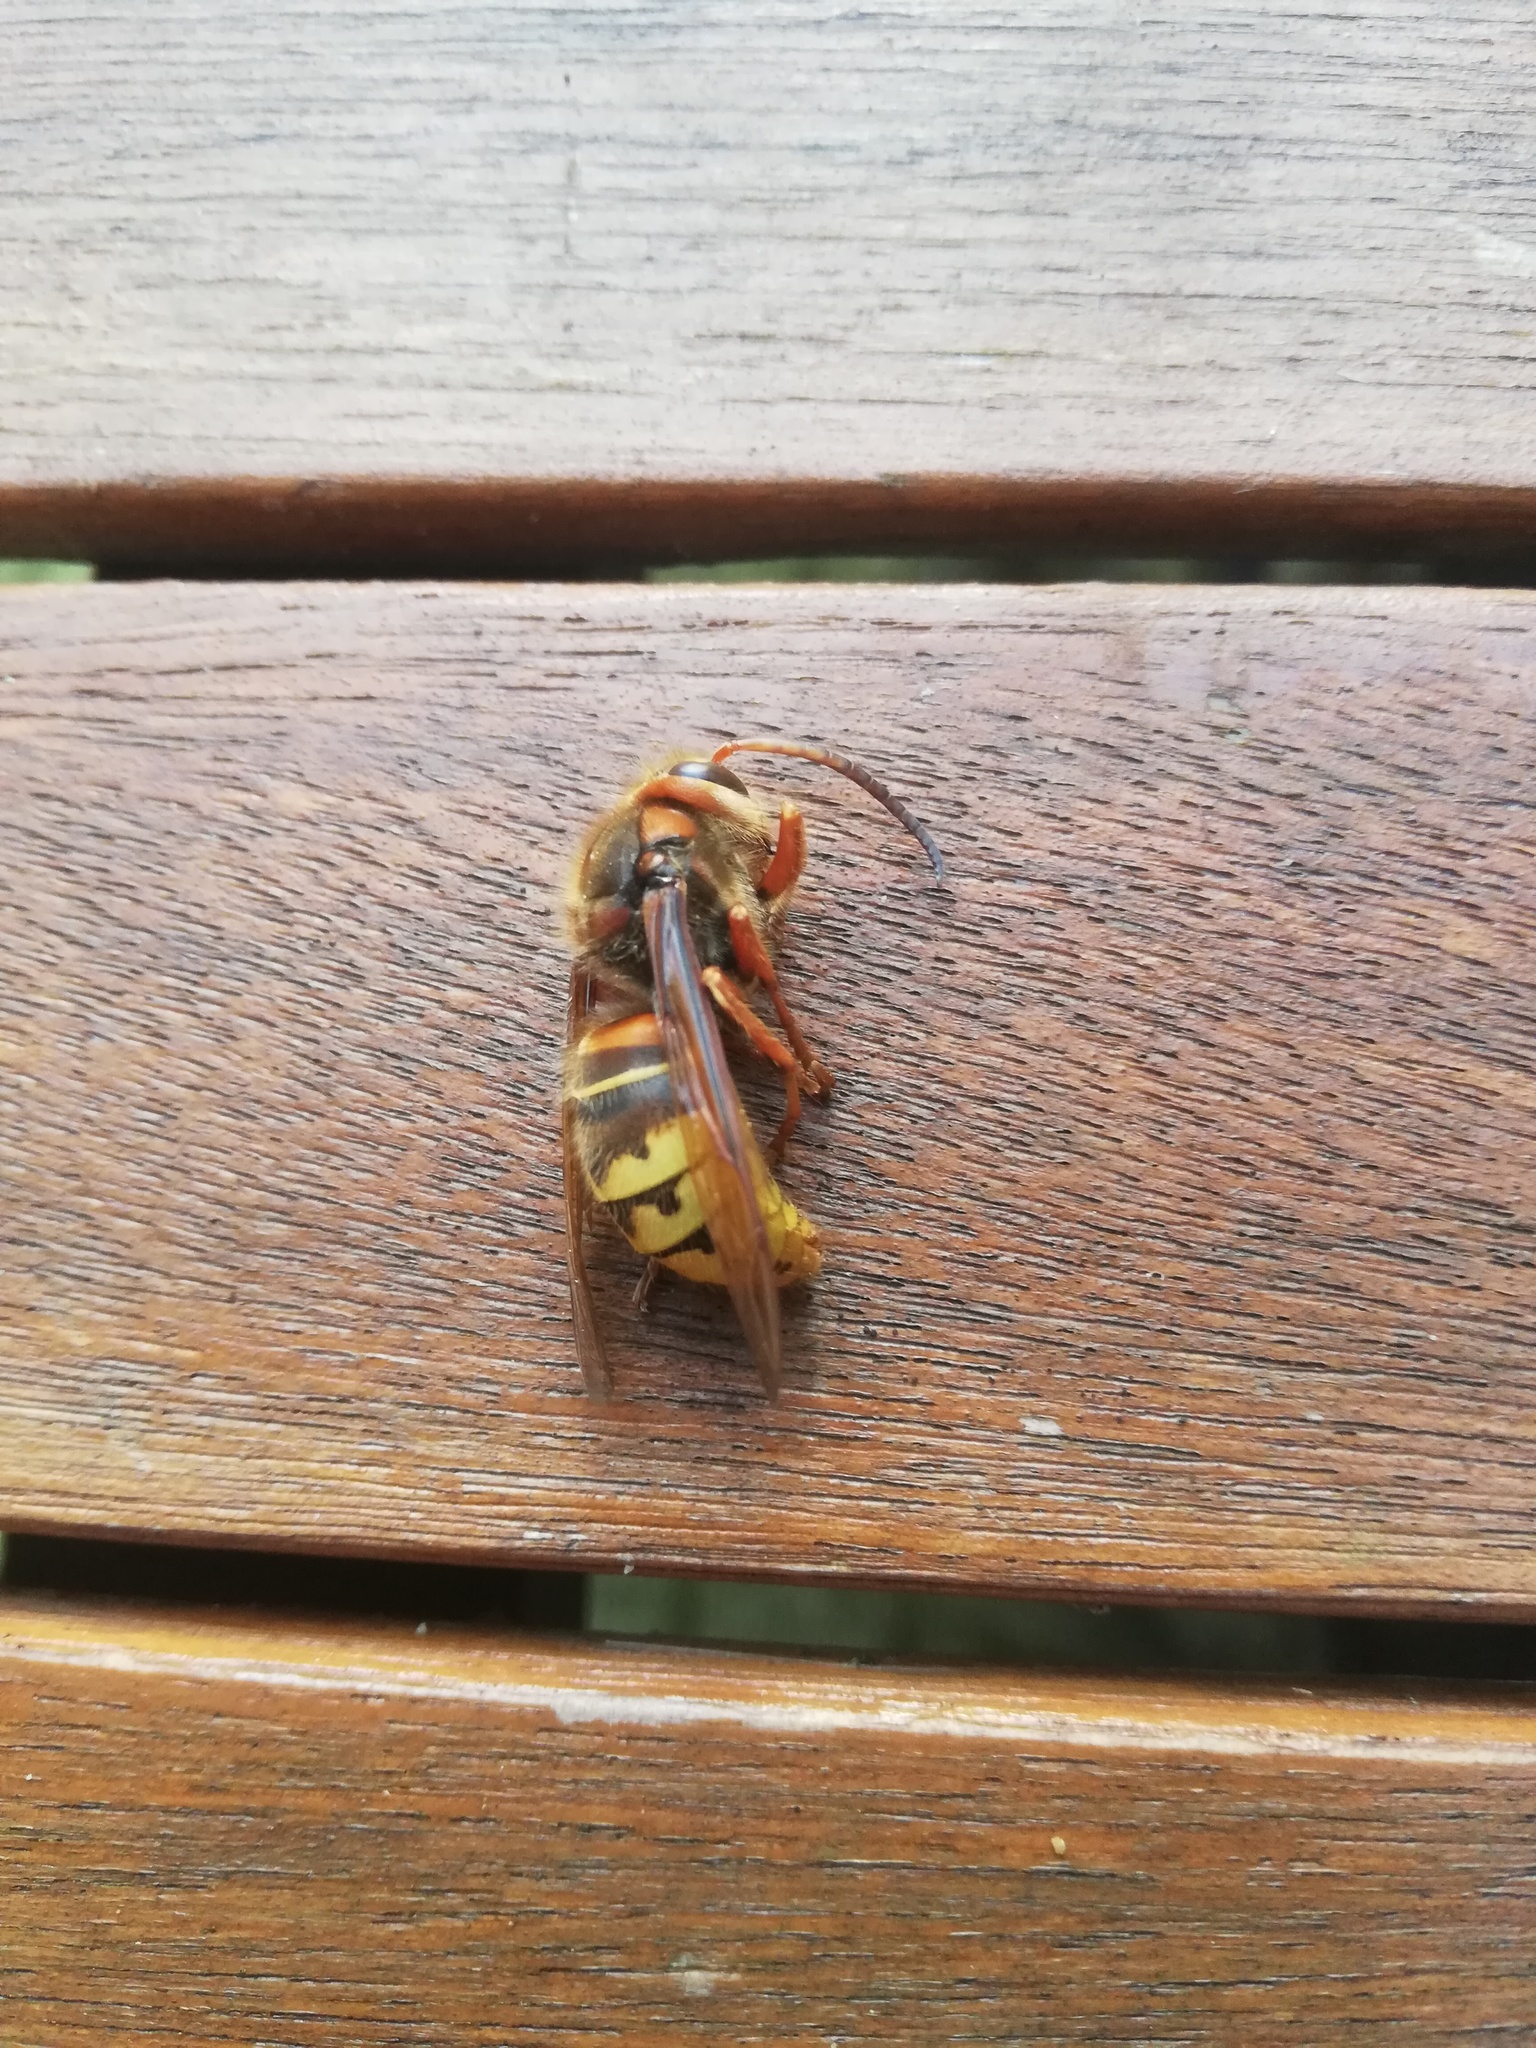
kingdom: Animalia
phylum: Arthropoda
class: Insecta
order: Hymenoptera
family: Vespidae
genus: Vespa
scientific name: Vespa crabro
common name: Hornet
